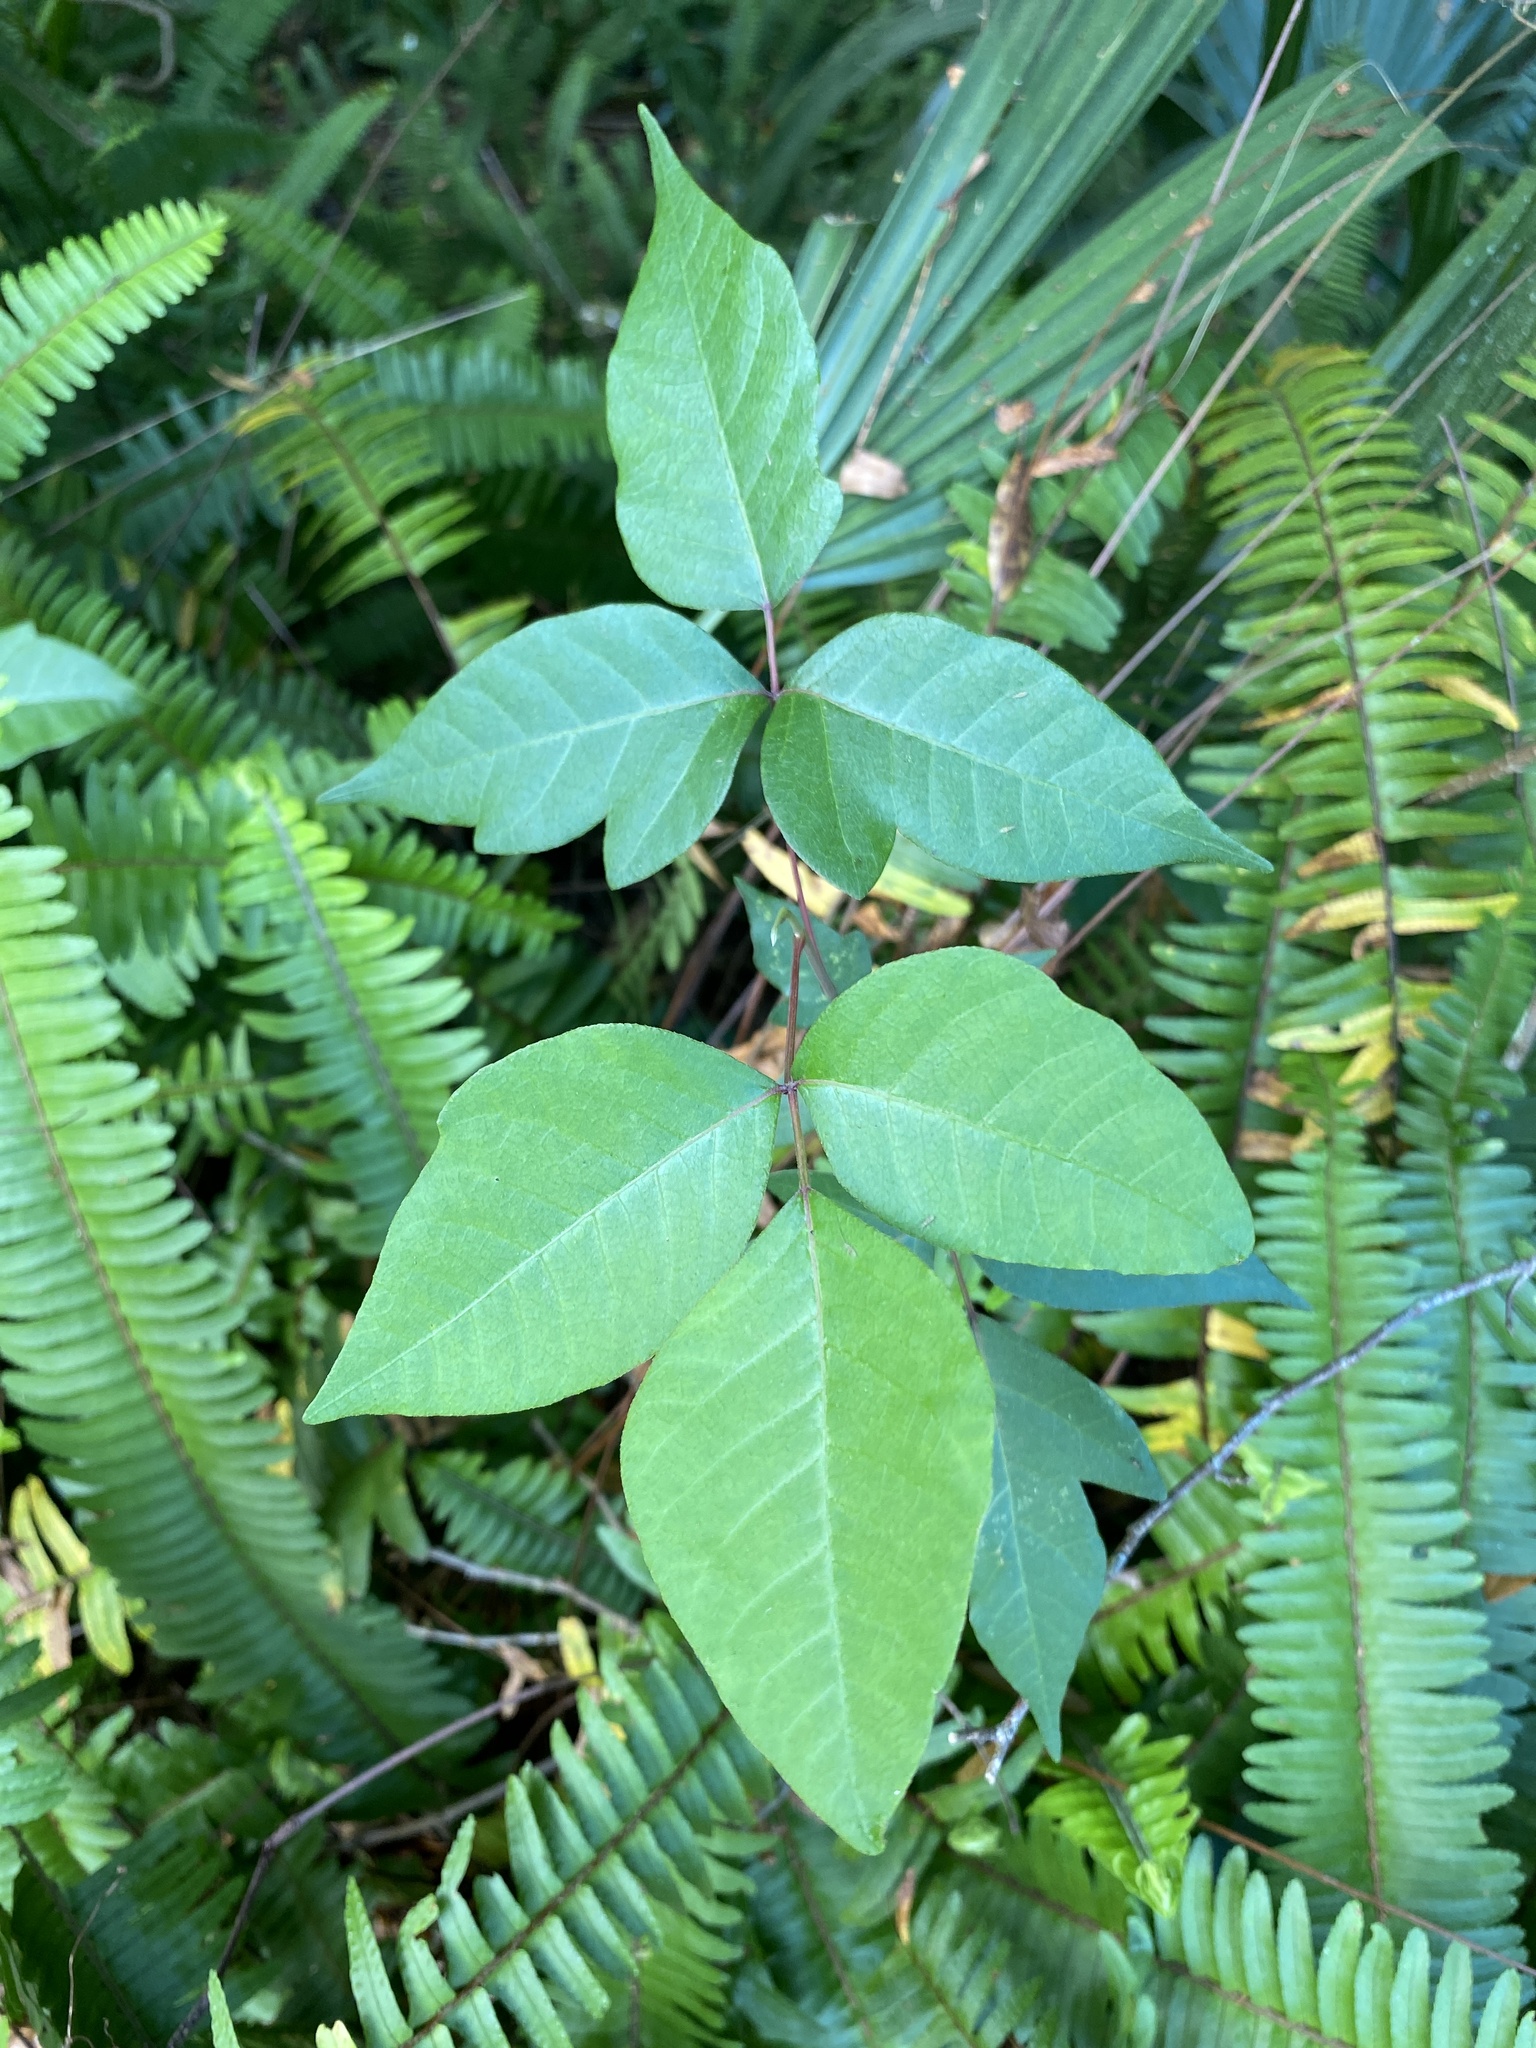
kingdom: Plantae
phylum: Tracheophyta
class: Magnoliopsida
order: Sapindales
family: Anacardiaceae
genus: Toxicodendron
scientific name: Toxicodendron radicans
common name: Poison ivy
